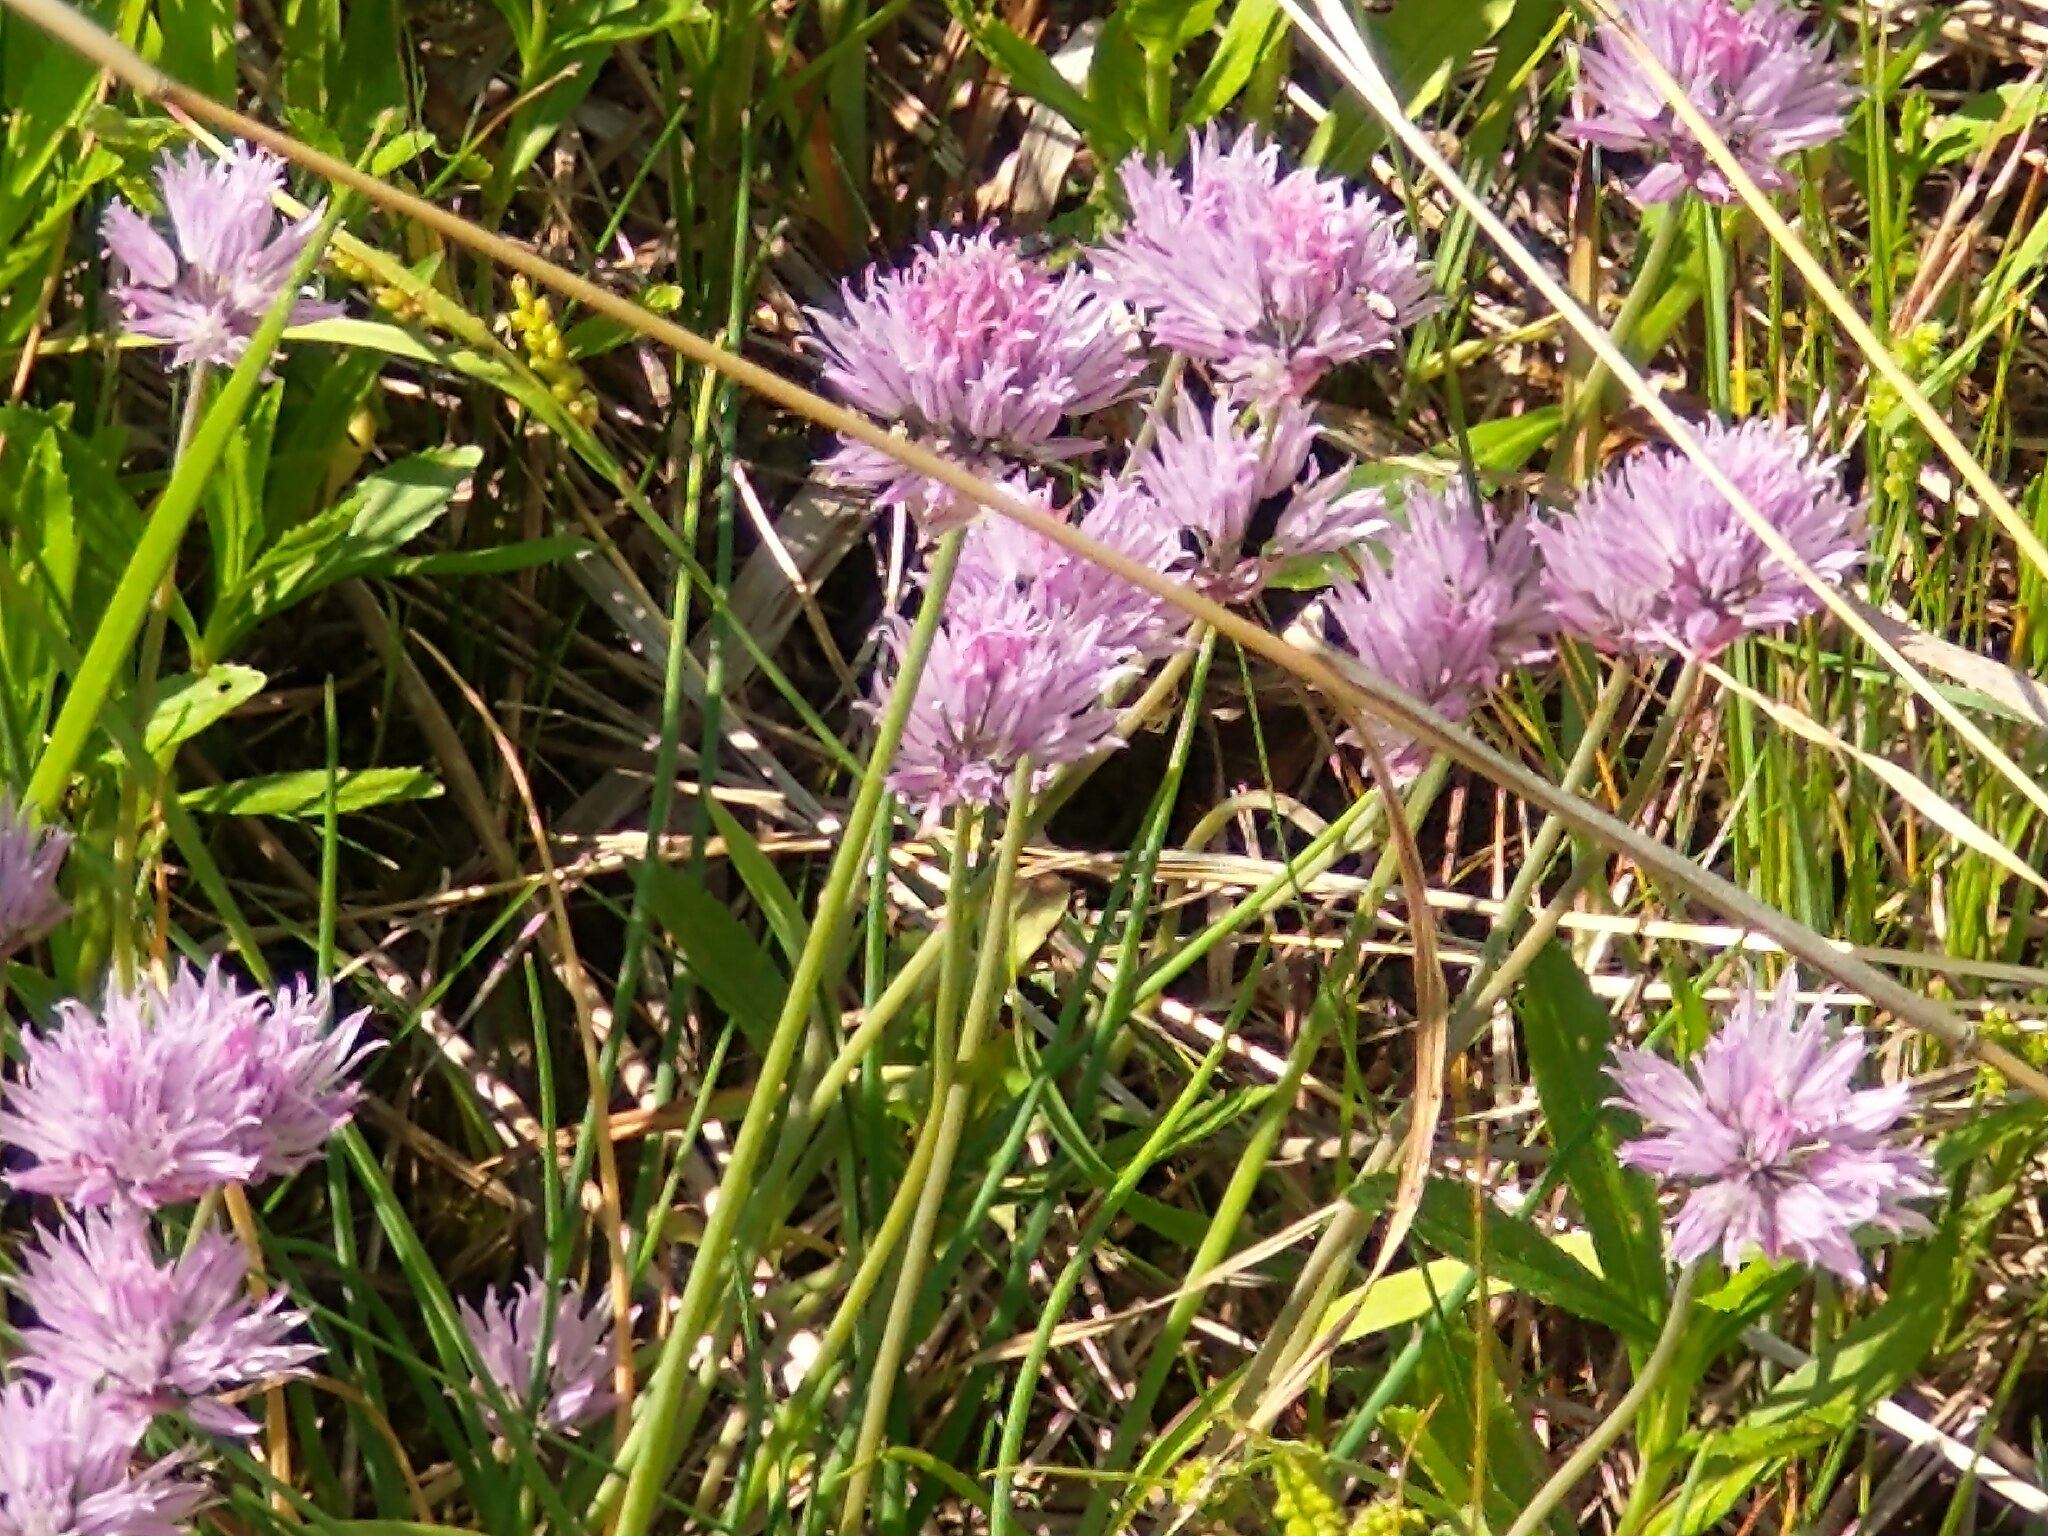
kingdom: Plantae
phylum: Tracheophyta
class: Liliopsida
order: Asparagales
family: Amaryllidaceae
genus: Allium
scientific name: Allium schoenoprasum
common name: Chives
